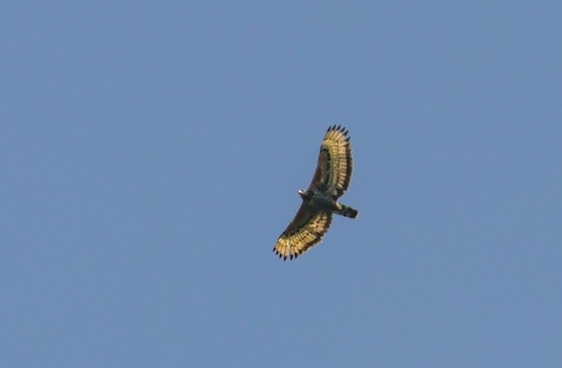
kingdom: Animalia
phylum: Chordata
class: Aves
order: Accipitriformes
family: Accipitridae
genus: Stephanoaetus
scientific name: Stephanoaetus coronatus
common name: Crowned eagle
